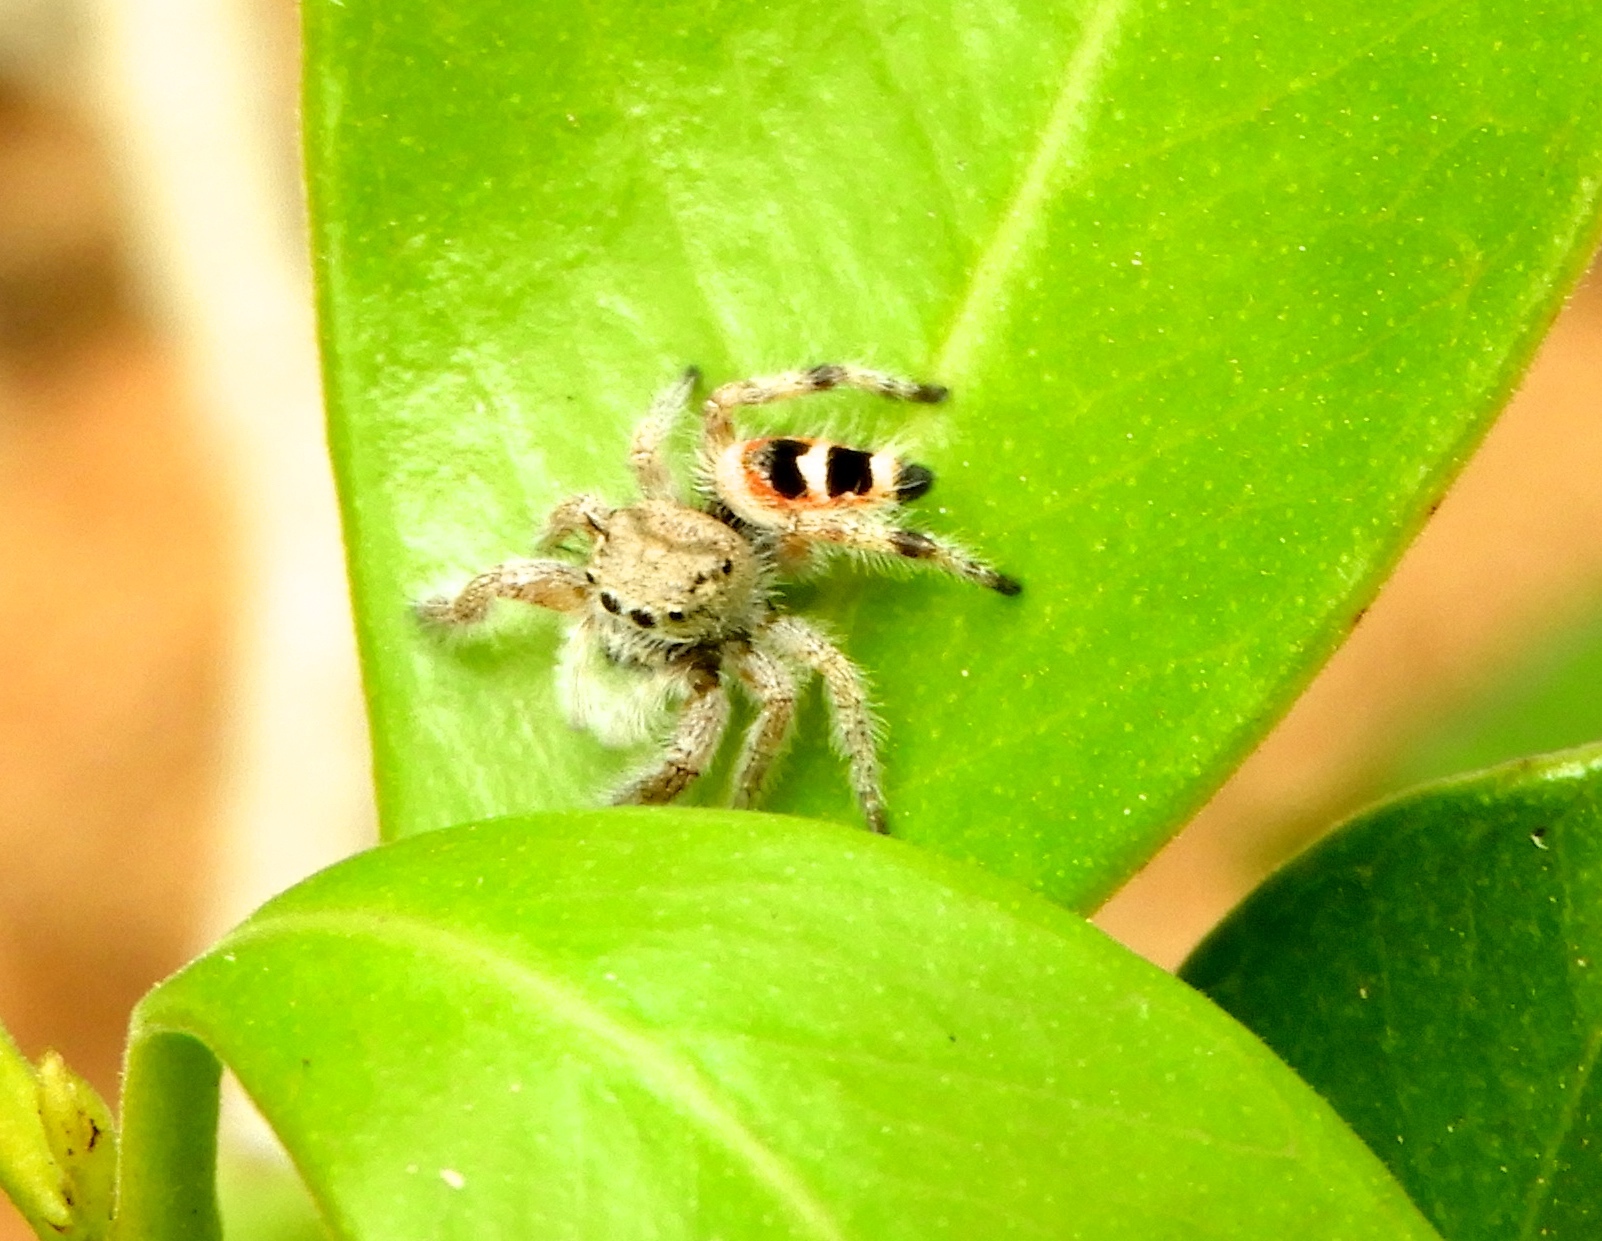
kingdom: Animalia
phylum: Arthropoda
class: Arachnida
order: Araneae
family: Salticidae
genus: Phidippus
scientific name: Phidippus pacosauritus
